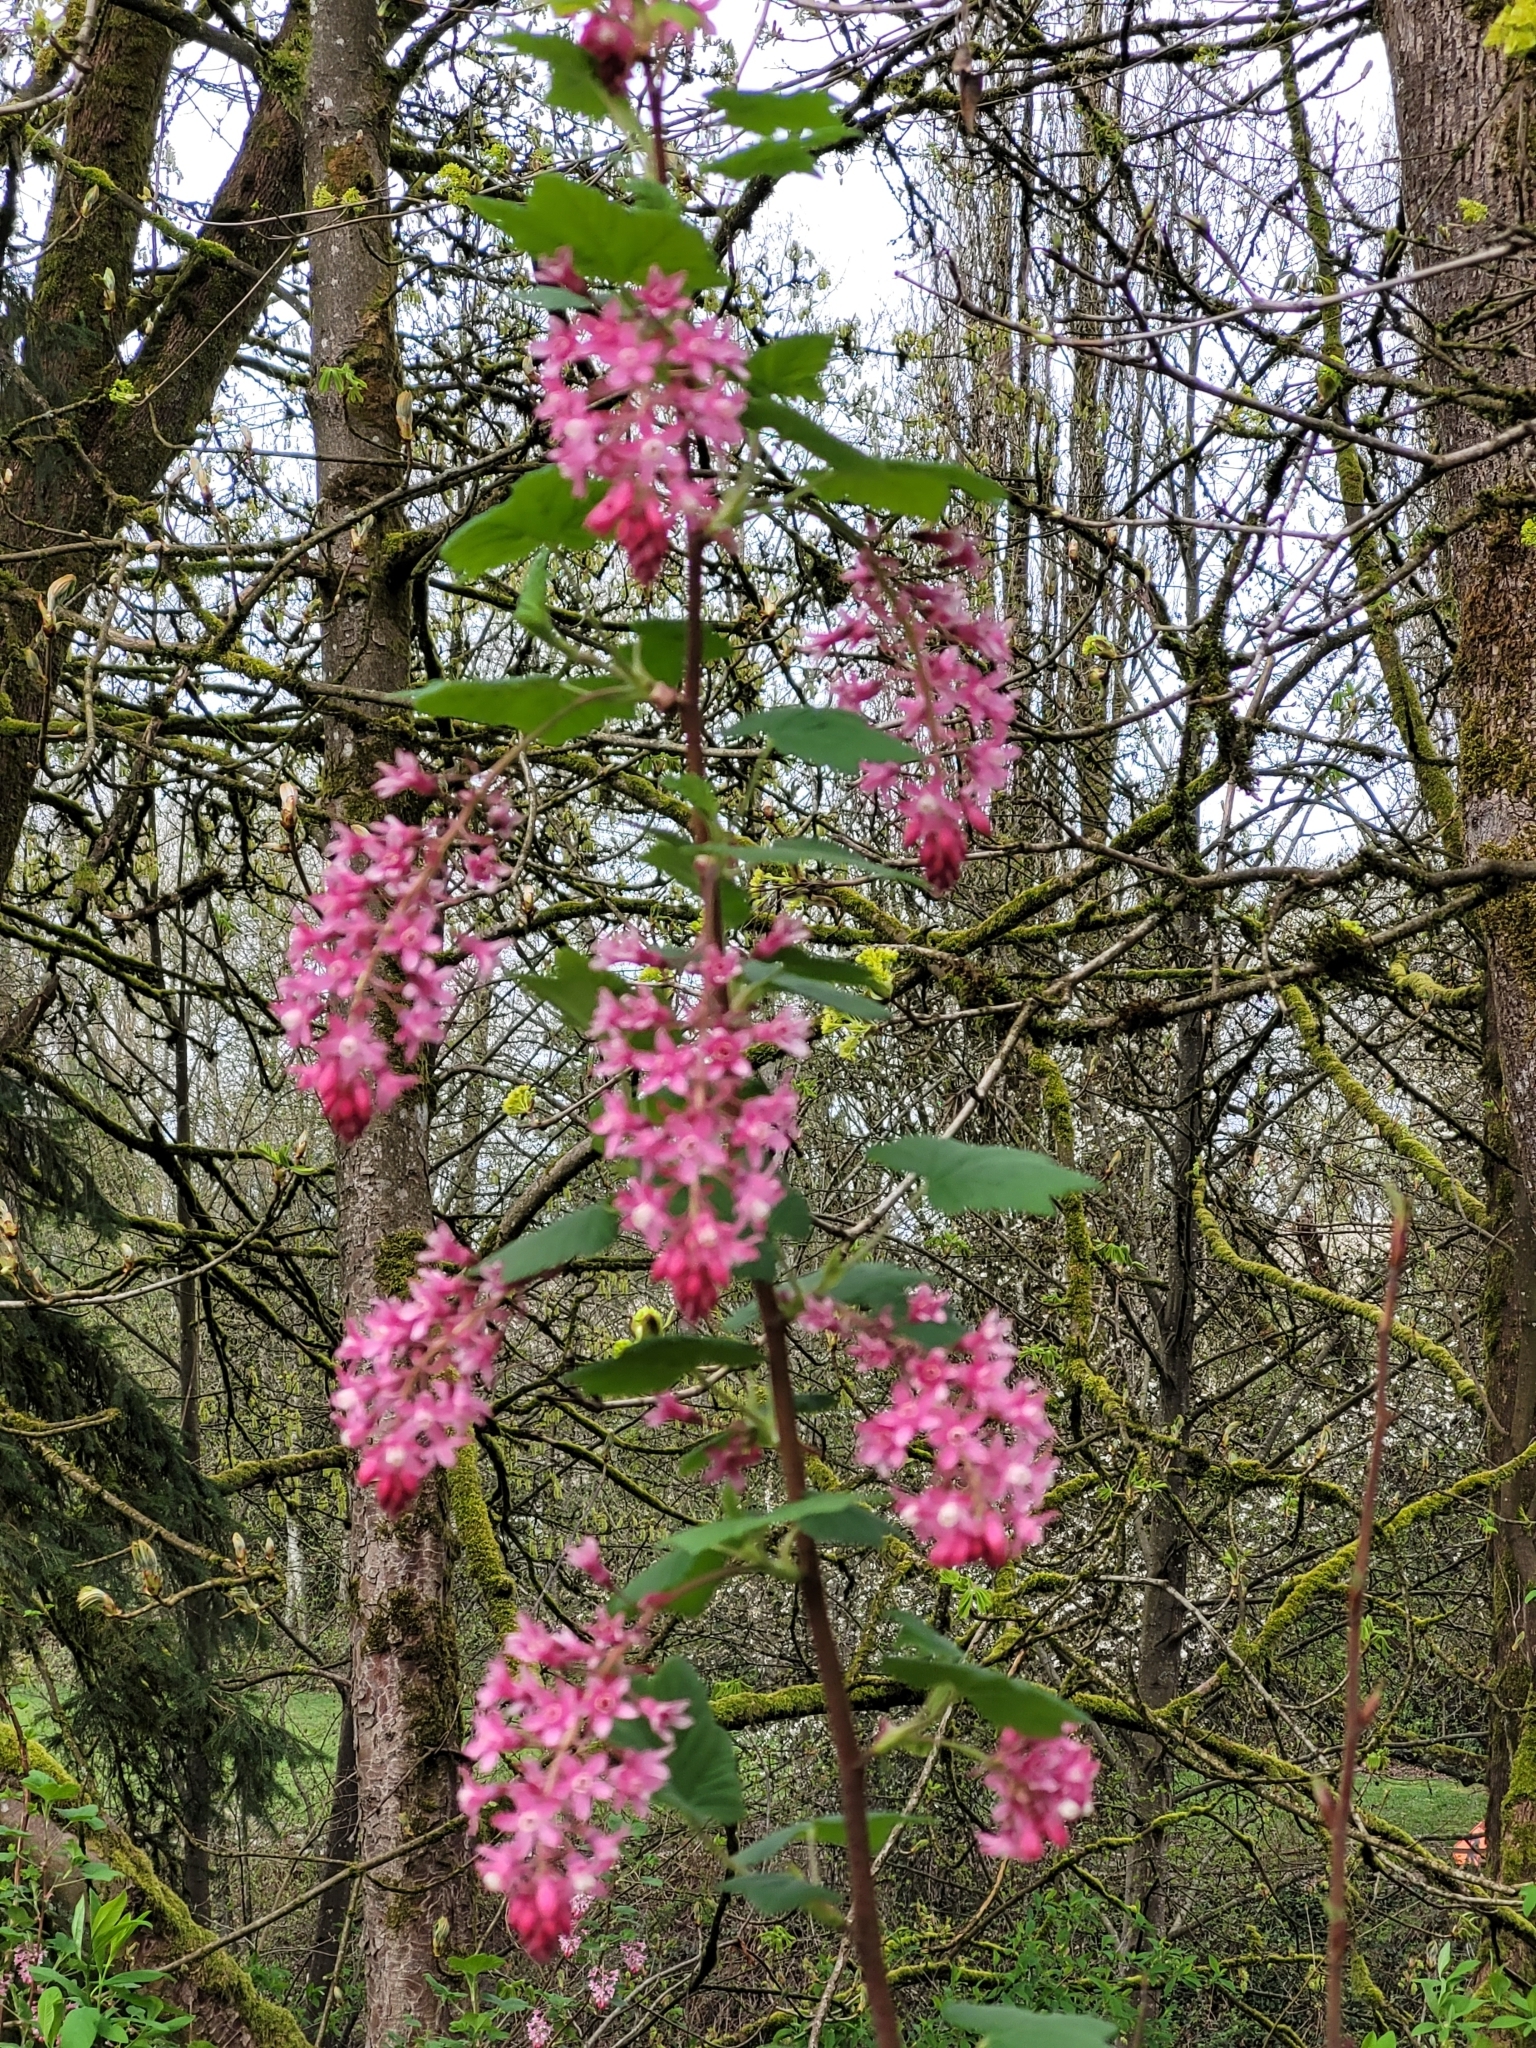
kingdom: Plantae
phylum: Tracheophyta
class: Magnoliopsida
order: Saxifragales
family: Grossulariaceae
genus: Ribes
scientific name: Ribes sanguineum
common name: Flowering currant
